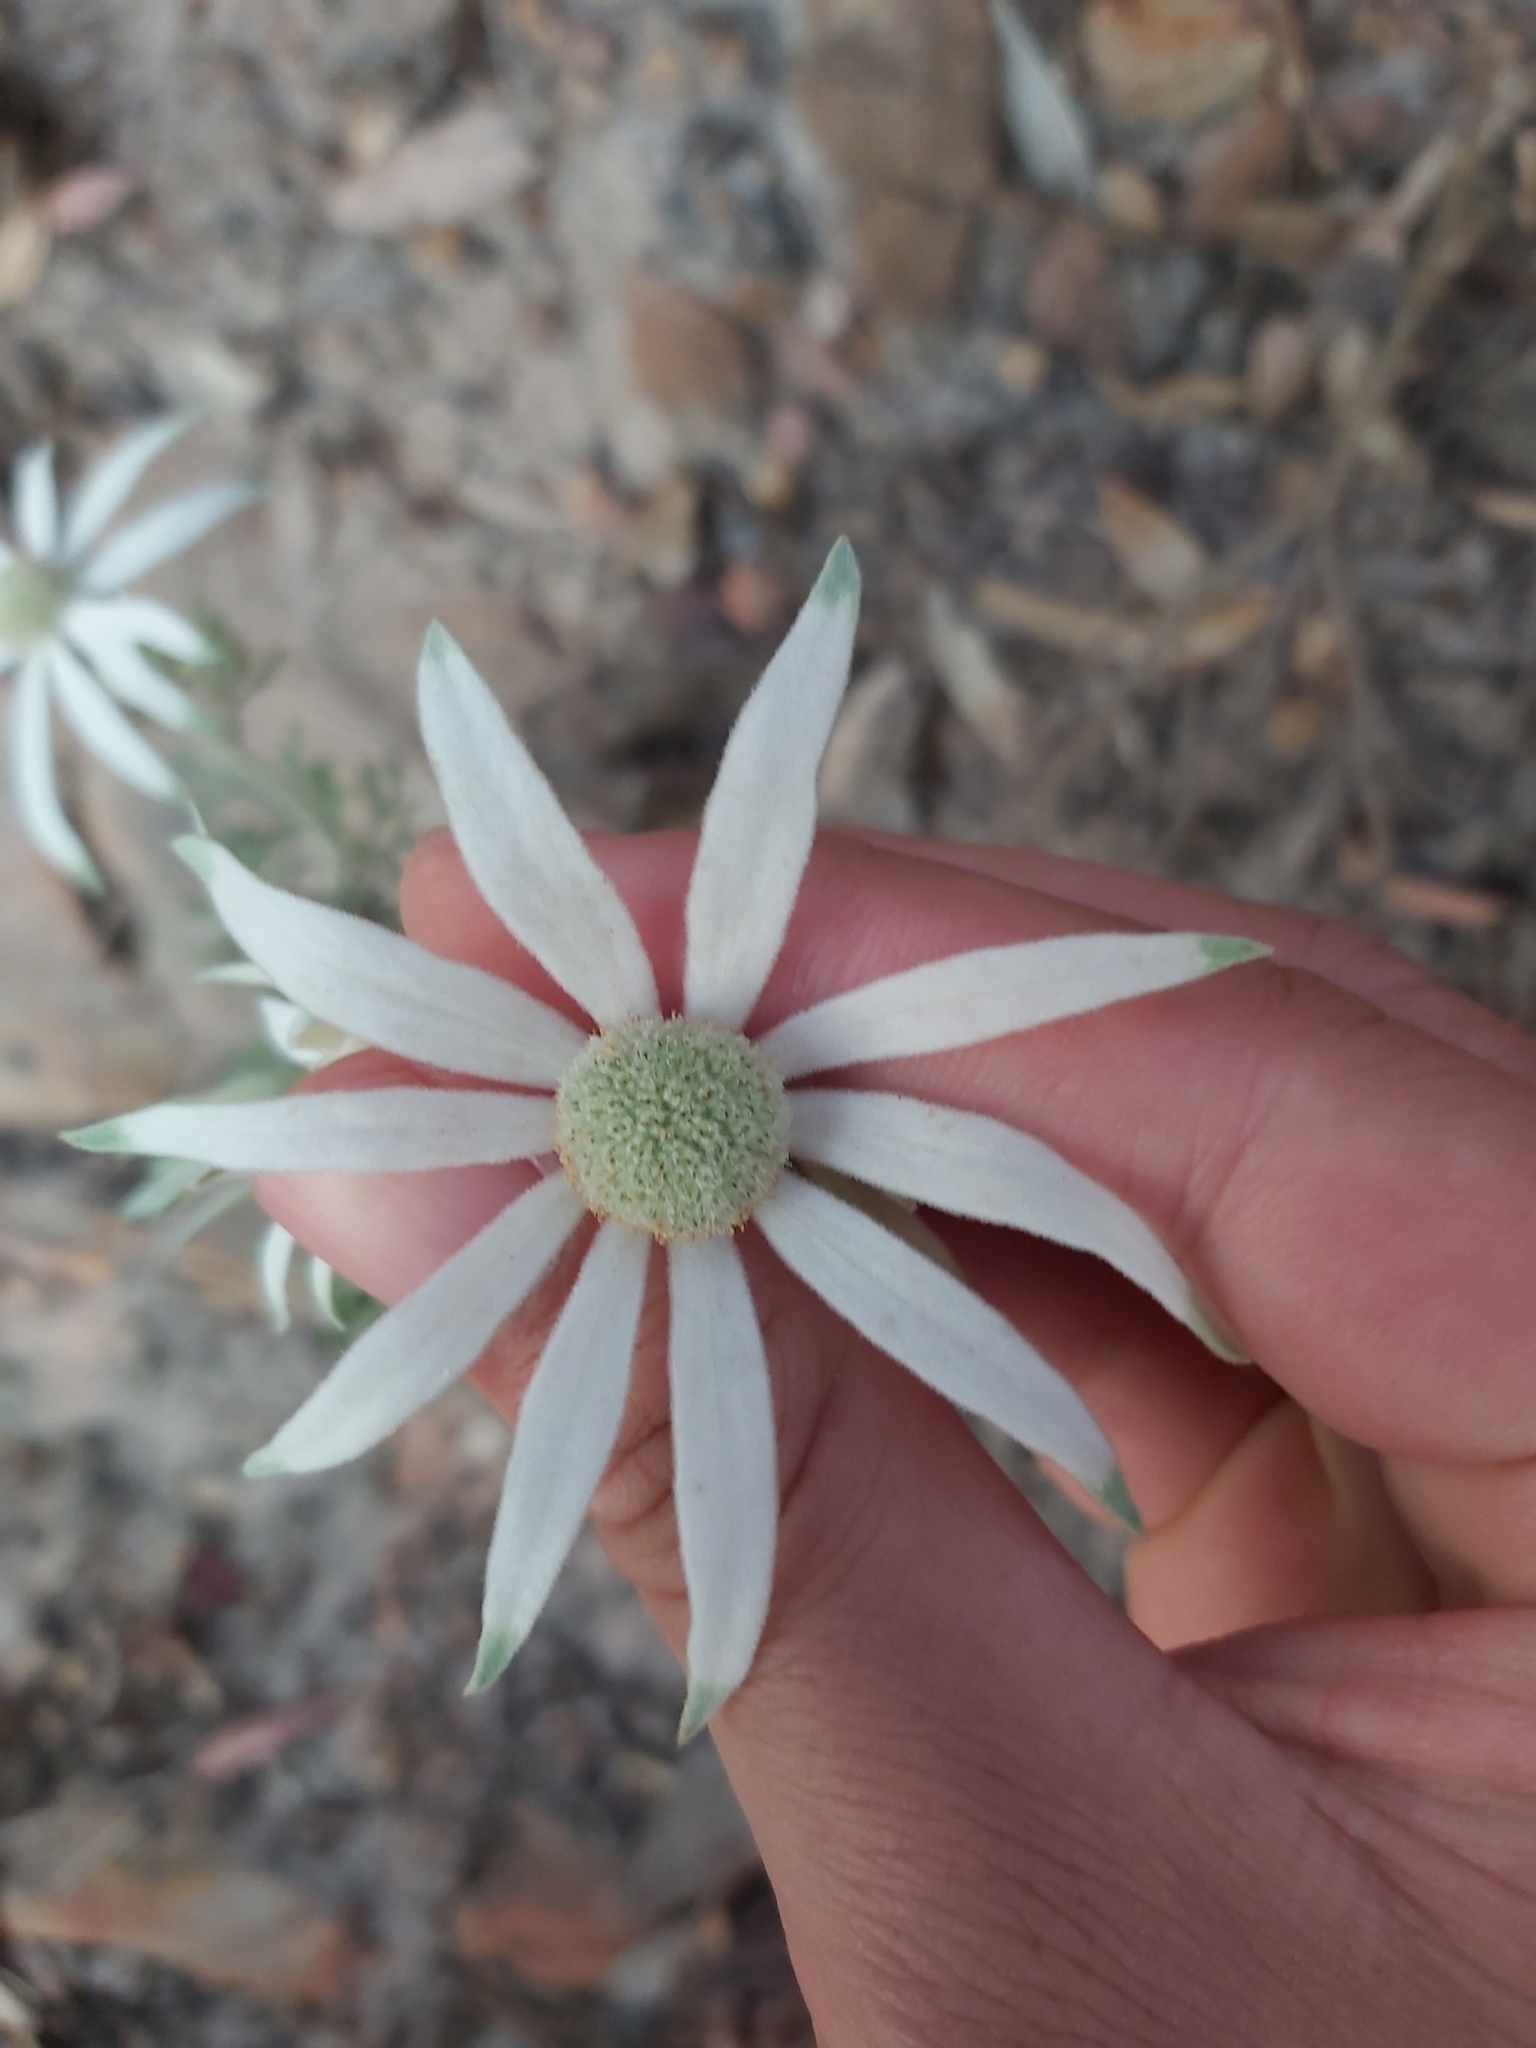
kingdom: Plantae
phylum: Tracheophyta
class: Magnoliopsida
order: Apiales
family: Apiaceae
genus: Actinotus
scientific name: Actinotus helianthi
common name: Flannel-flower
